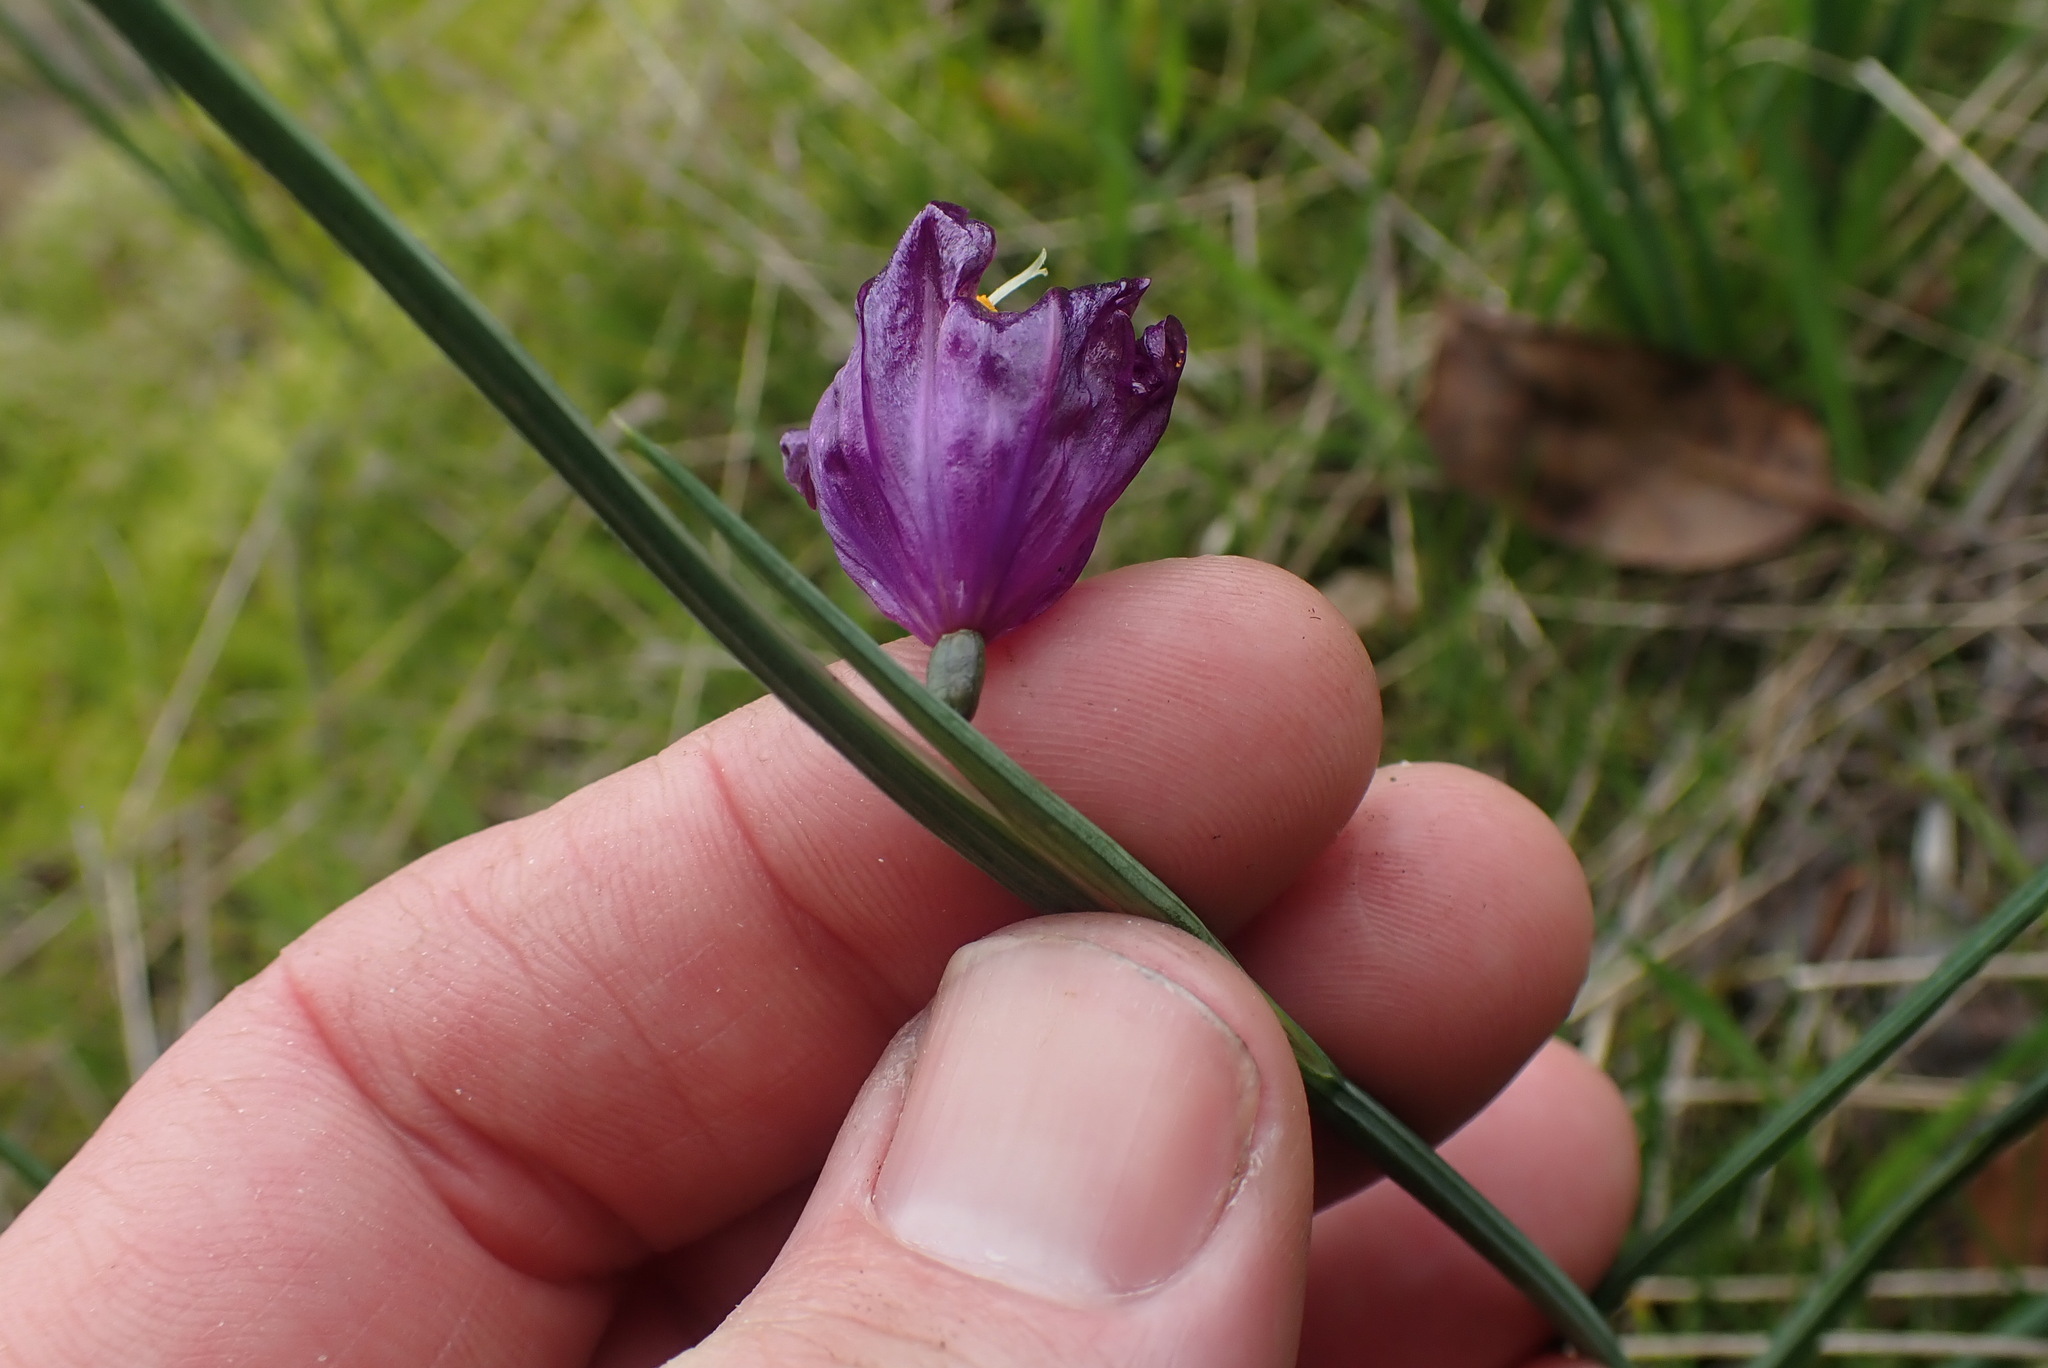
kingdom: Plantae
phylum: Tracheophyta
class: Liliopsida
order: Asparagales
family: Iridaceae
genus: Olsynium
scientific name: Olsynium douglasii
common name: Douglas' grasswidow
